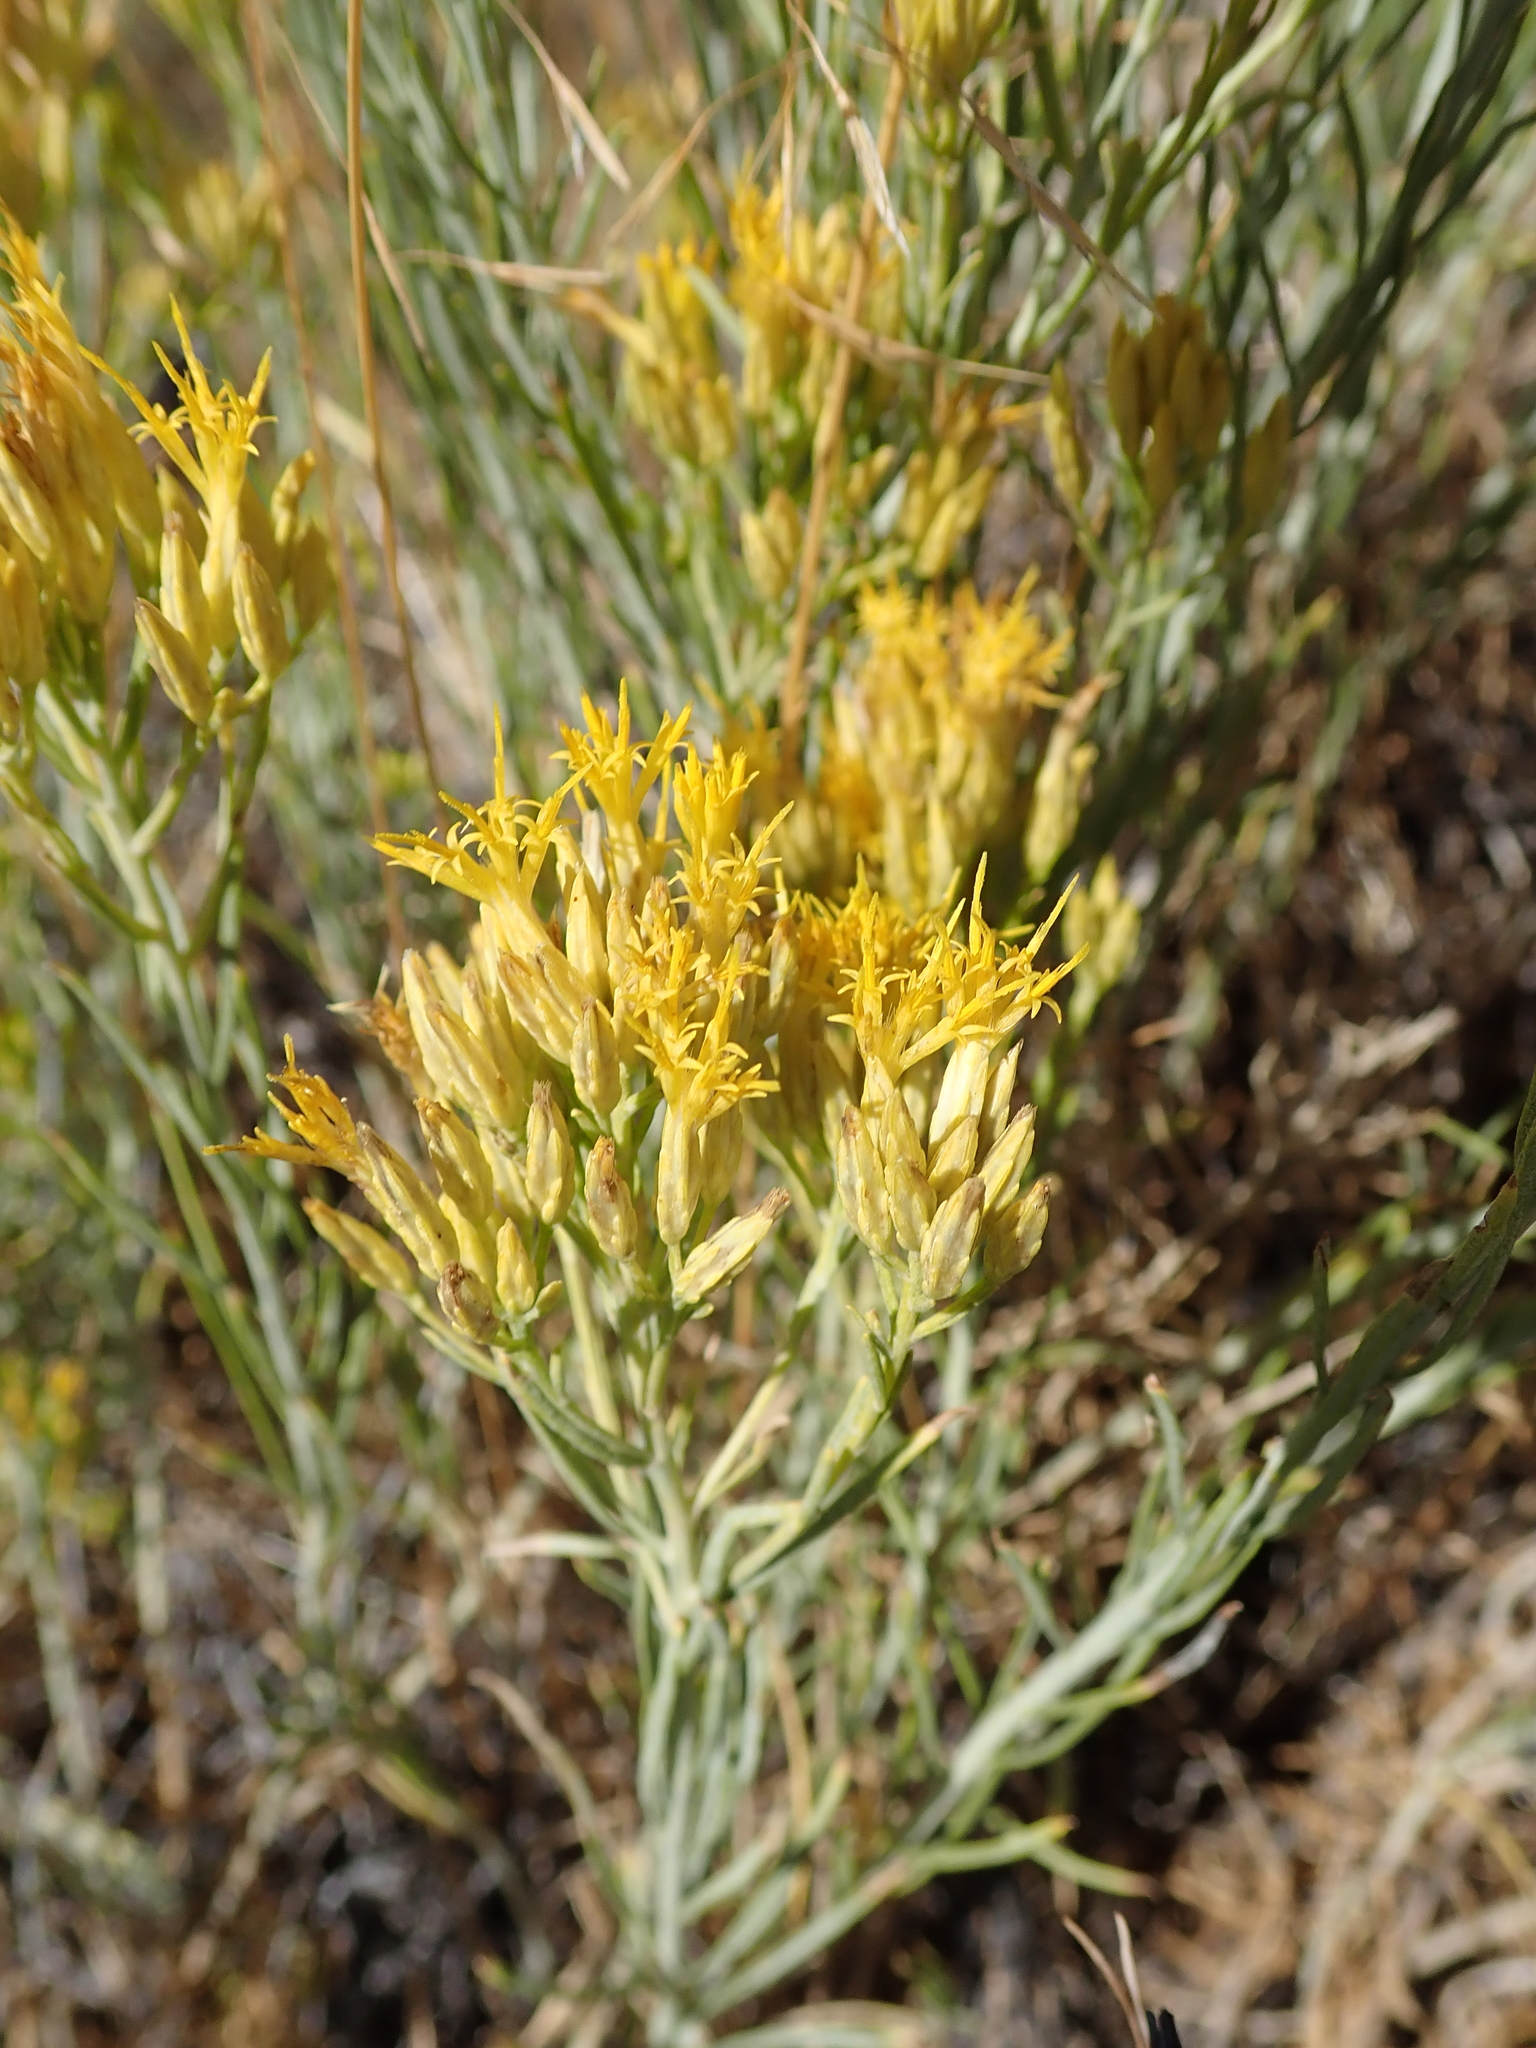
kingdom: Plantae
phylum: Tracheophyta
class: Magnoliopsida
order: Asterales
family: Asteraceae
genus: Ericameria
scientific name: Ericameria nauseosa
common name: Rubber rabbitbrush
